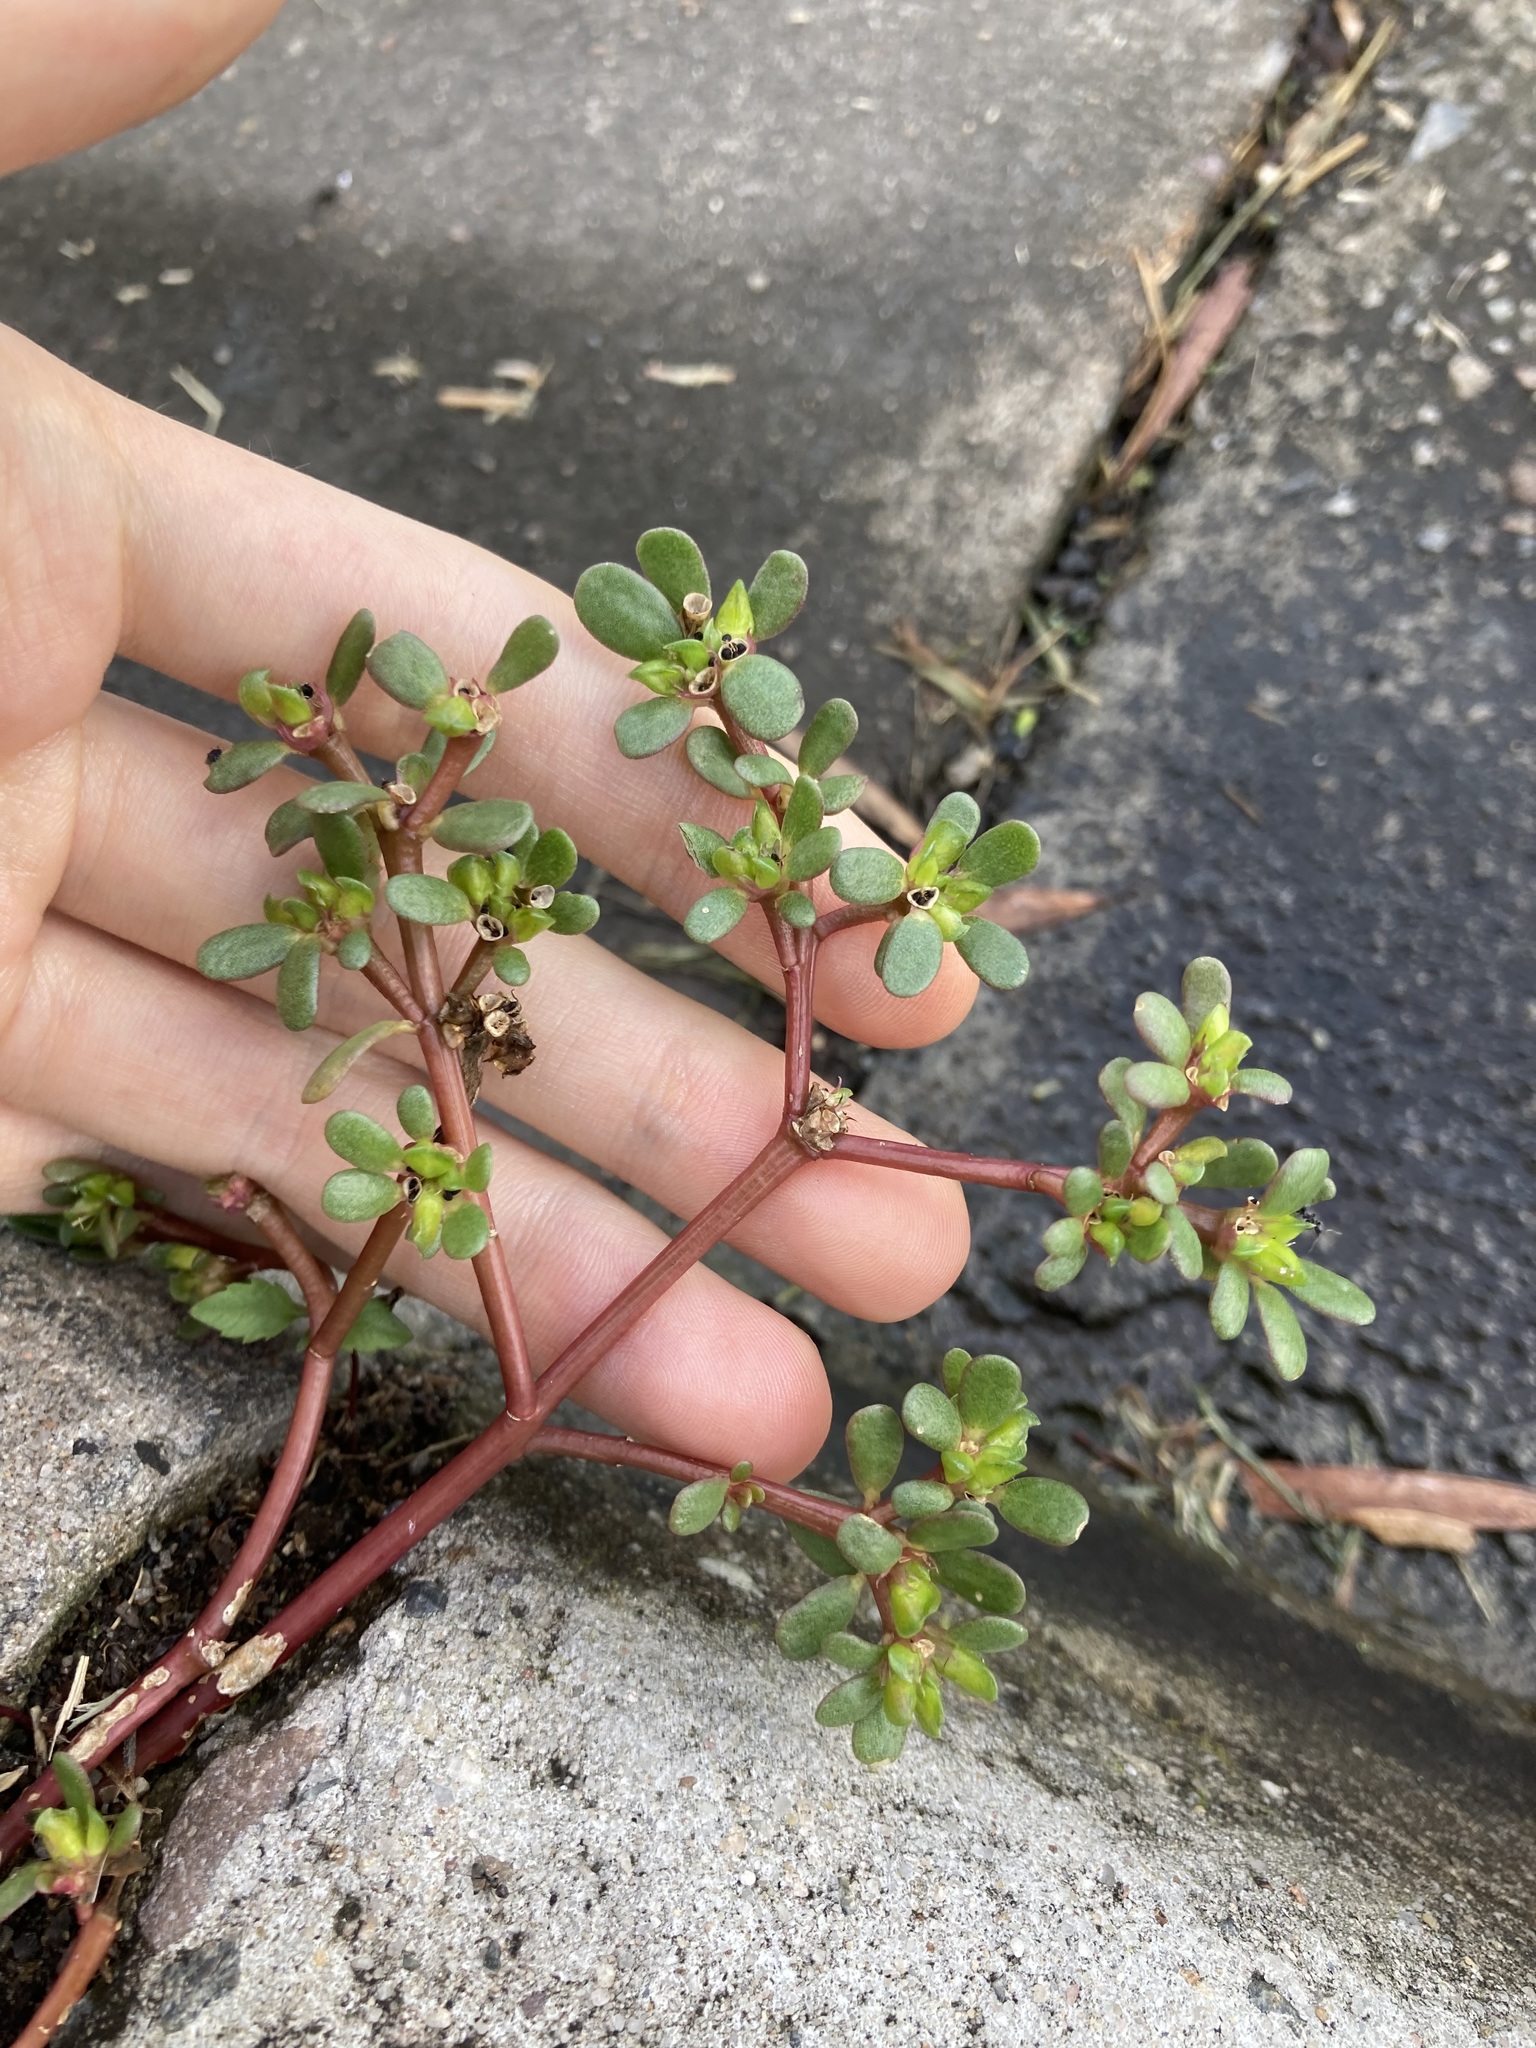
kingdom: Plantae
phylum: Tracheophyta
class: Magnoliopsida
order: Caryophyllales
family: Portulacaceae
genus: Portulaca
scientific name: Portulaca oleracea
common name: Common purslane
